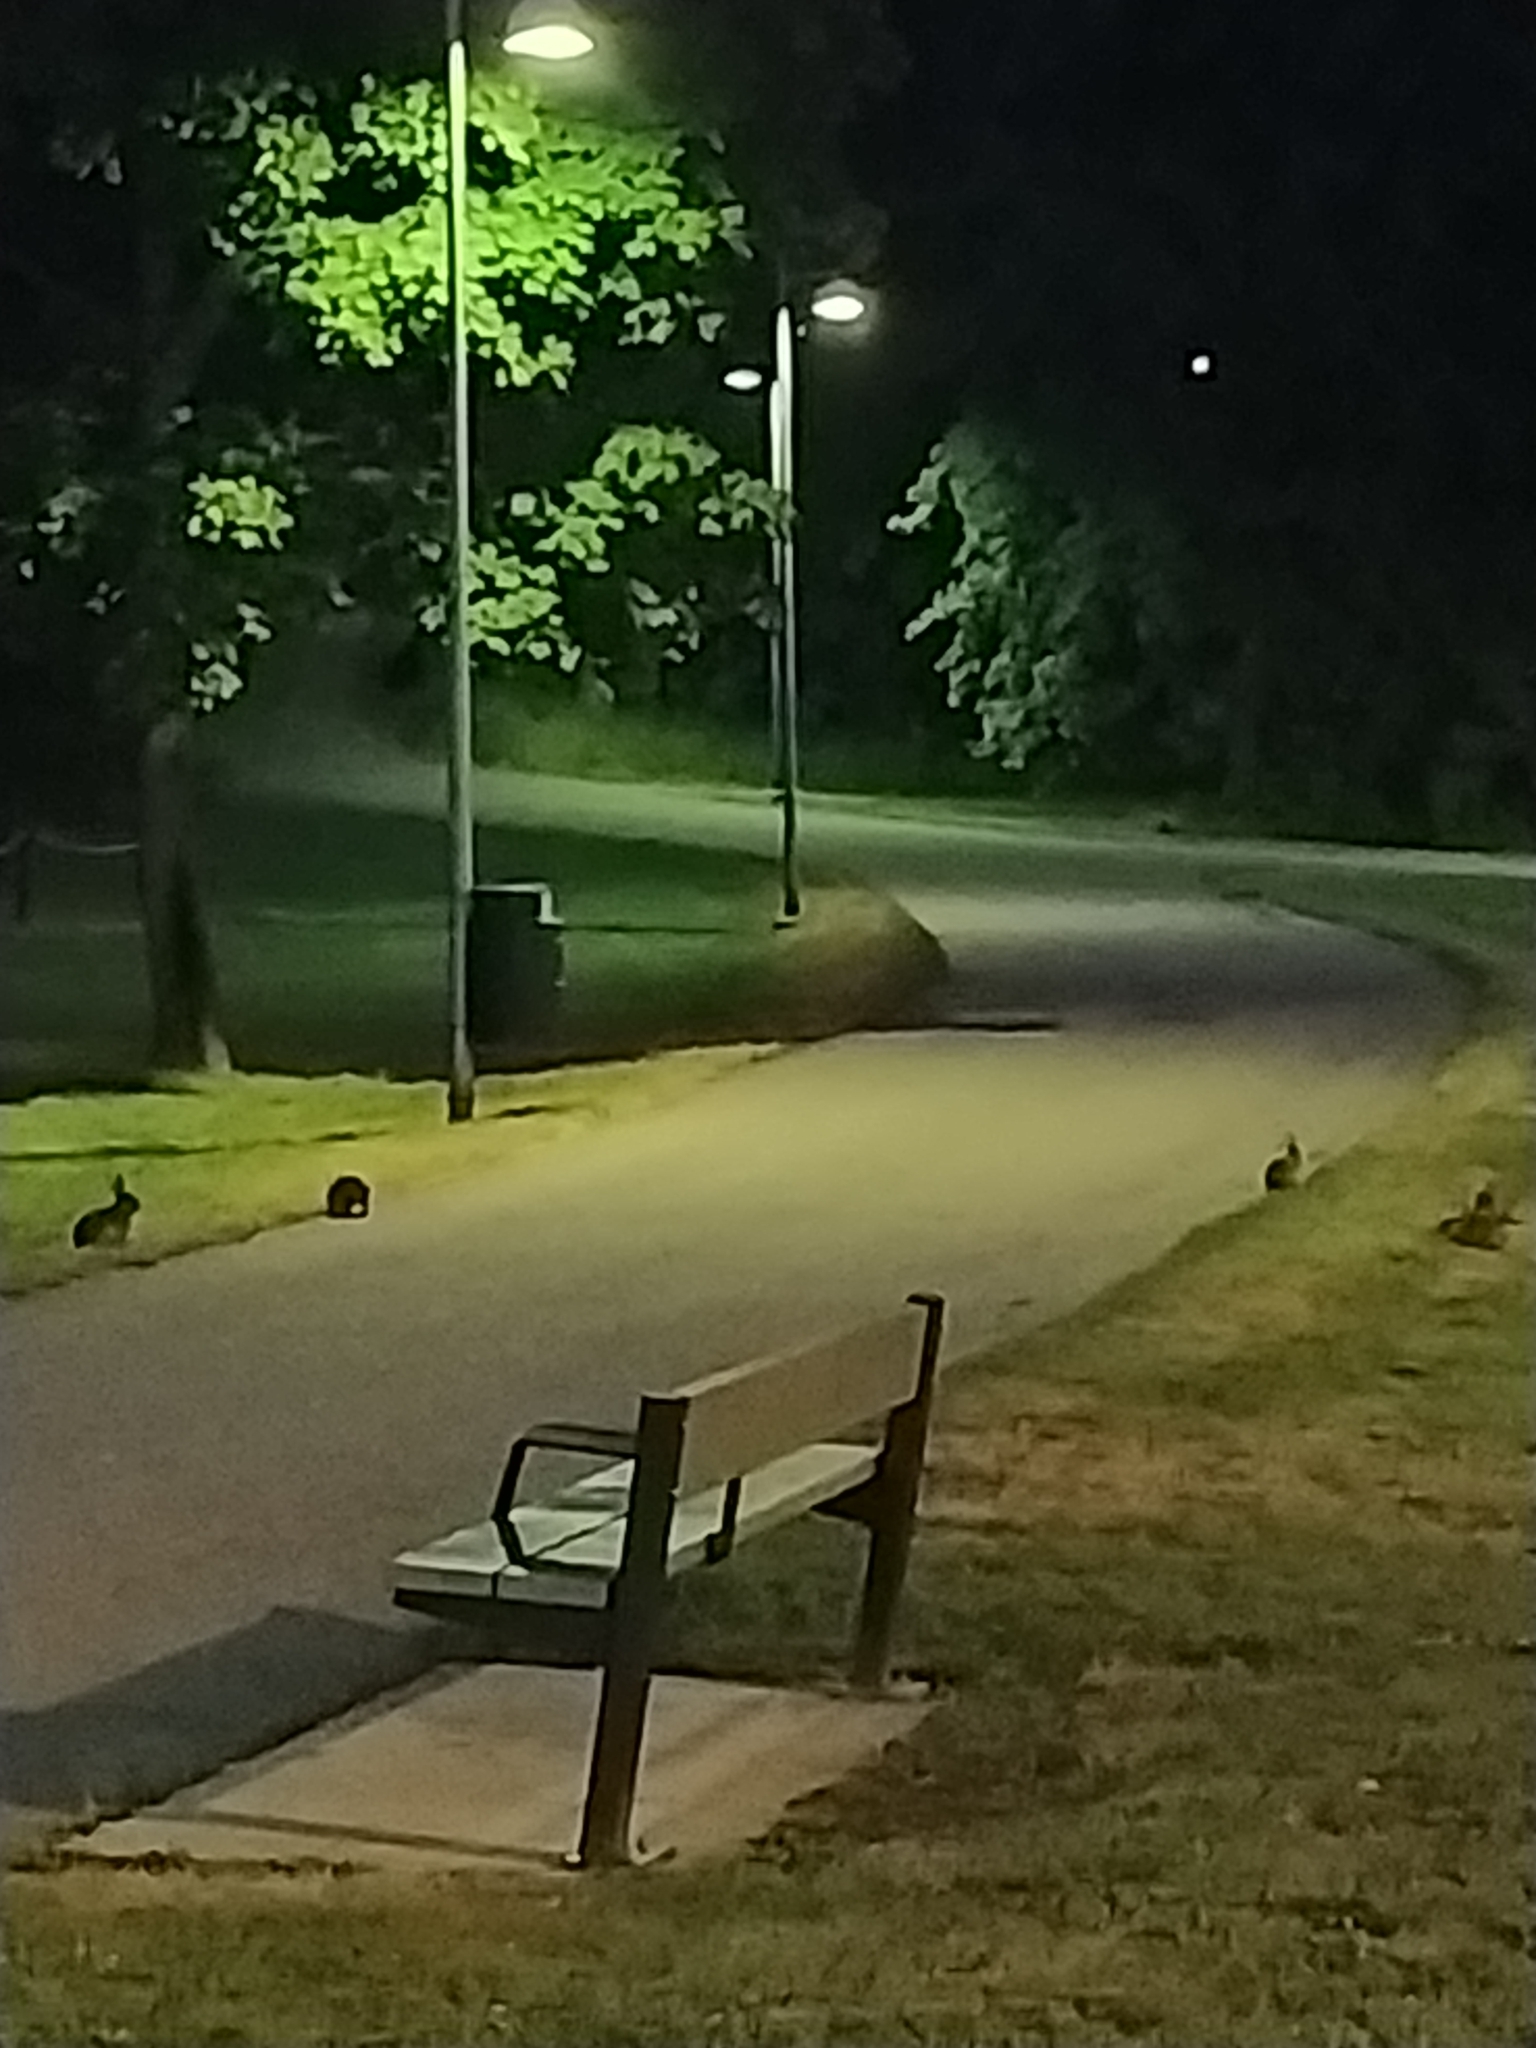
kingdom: Animalia
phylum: Chordata
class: Mammalia
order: Lagomorpha
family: Leporidae
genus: Oryctolagus
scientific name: Oryctolagus cuniculus
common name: European rabbit
